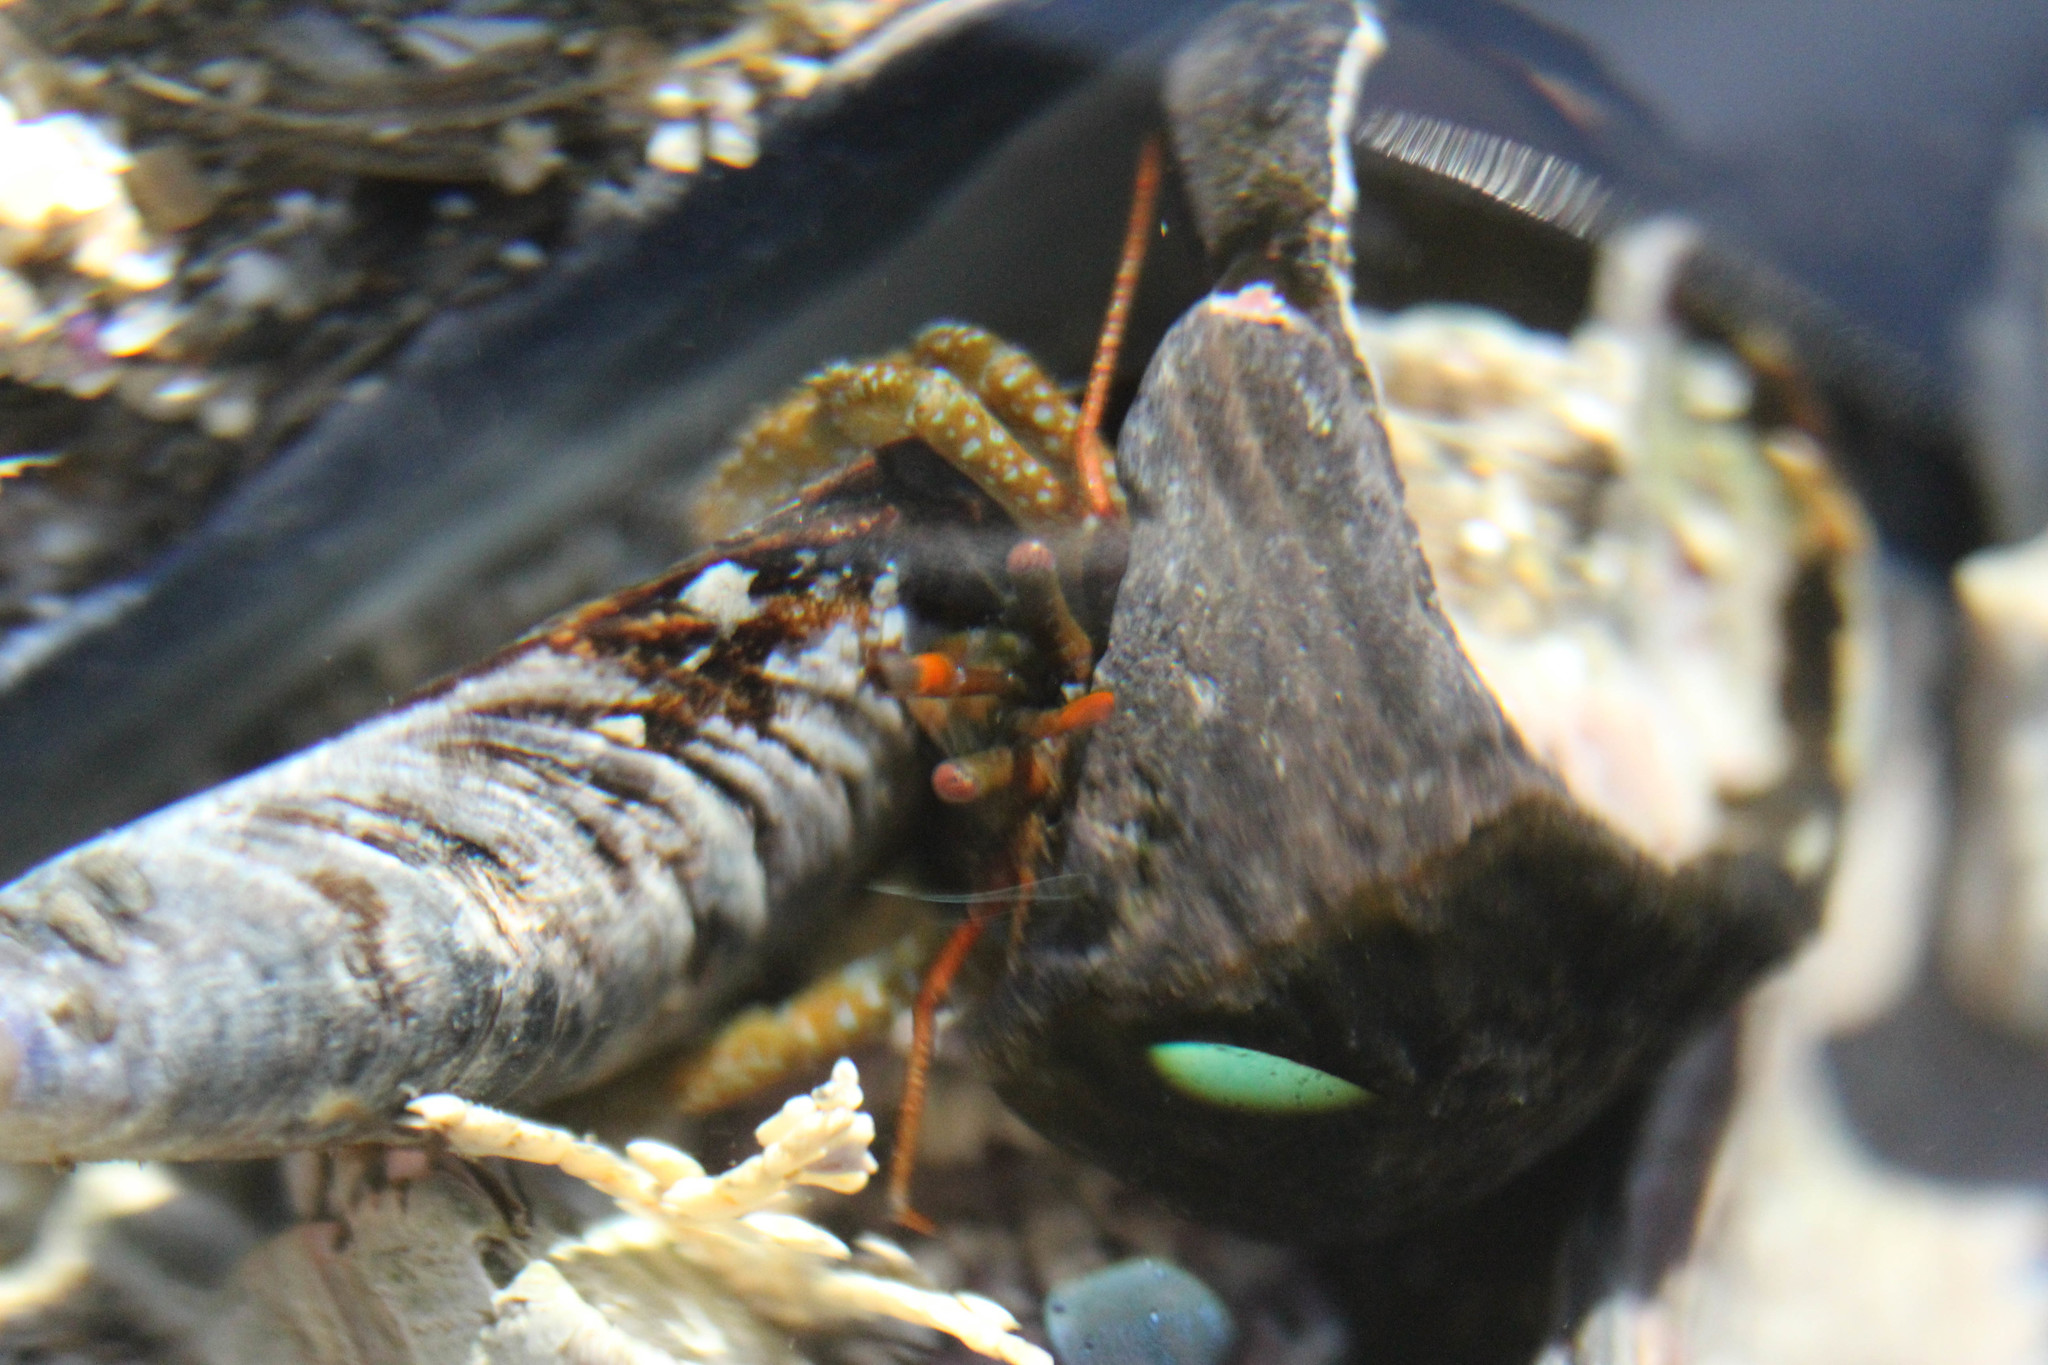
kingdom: Animalia
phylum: Arthropoda
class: Malacostraca
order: Decapoda
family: Paguridae
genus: Pagurus
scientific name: Pagurus granosimanus
